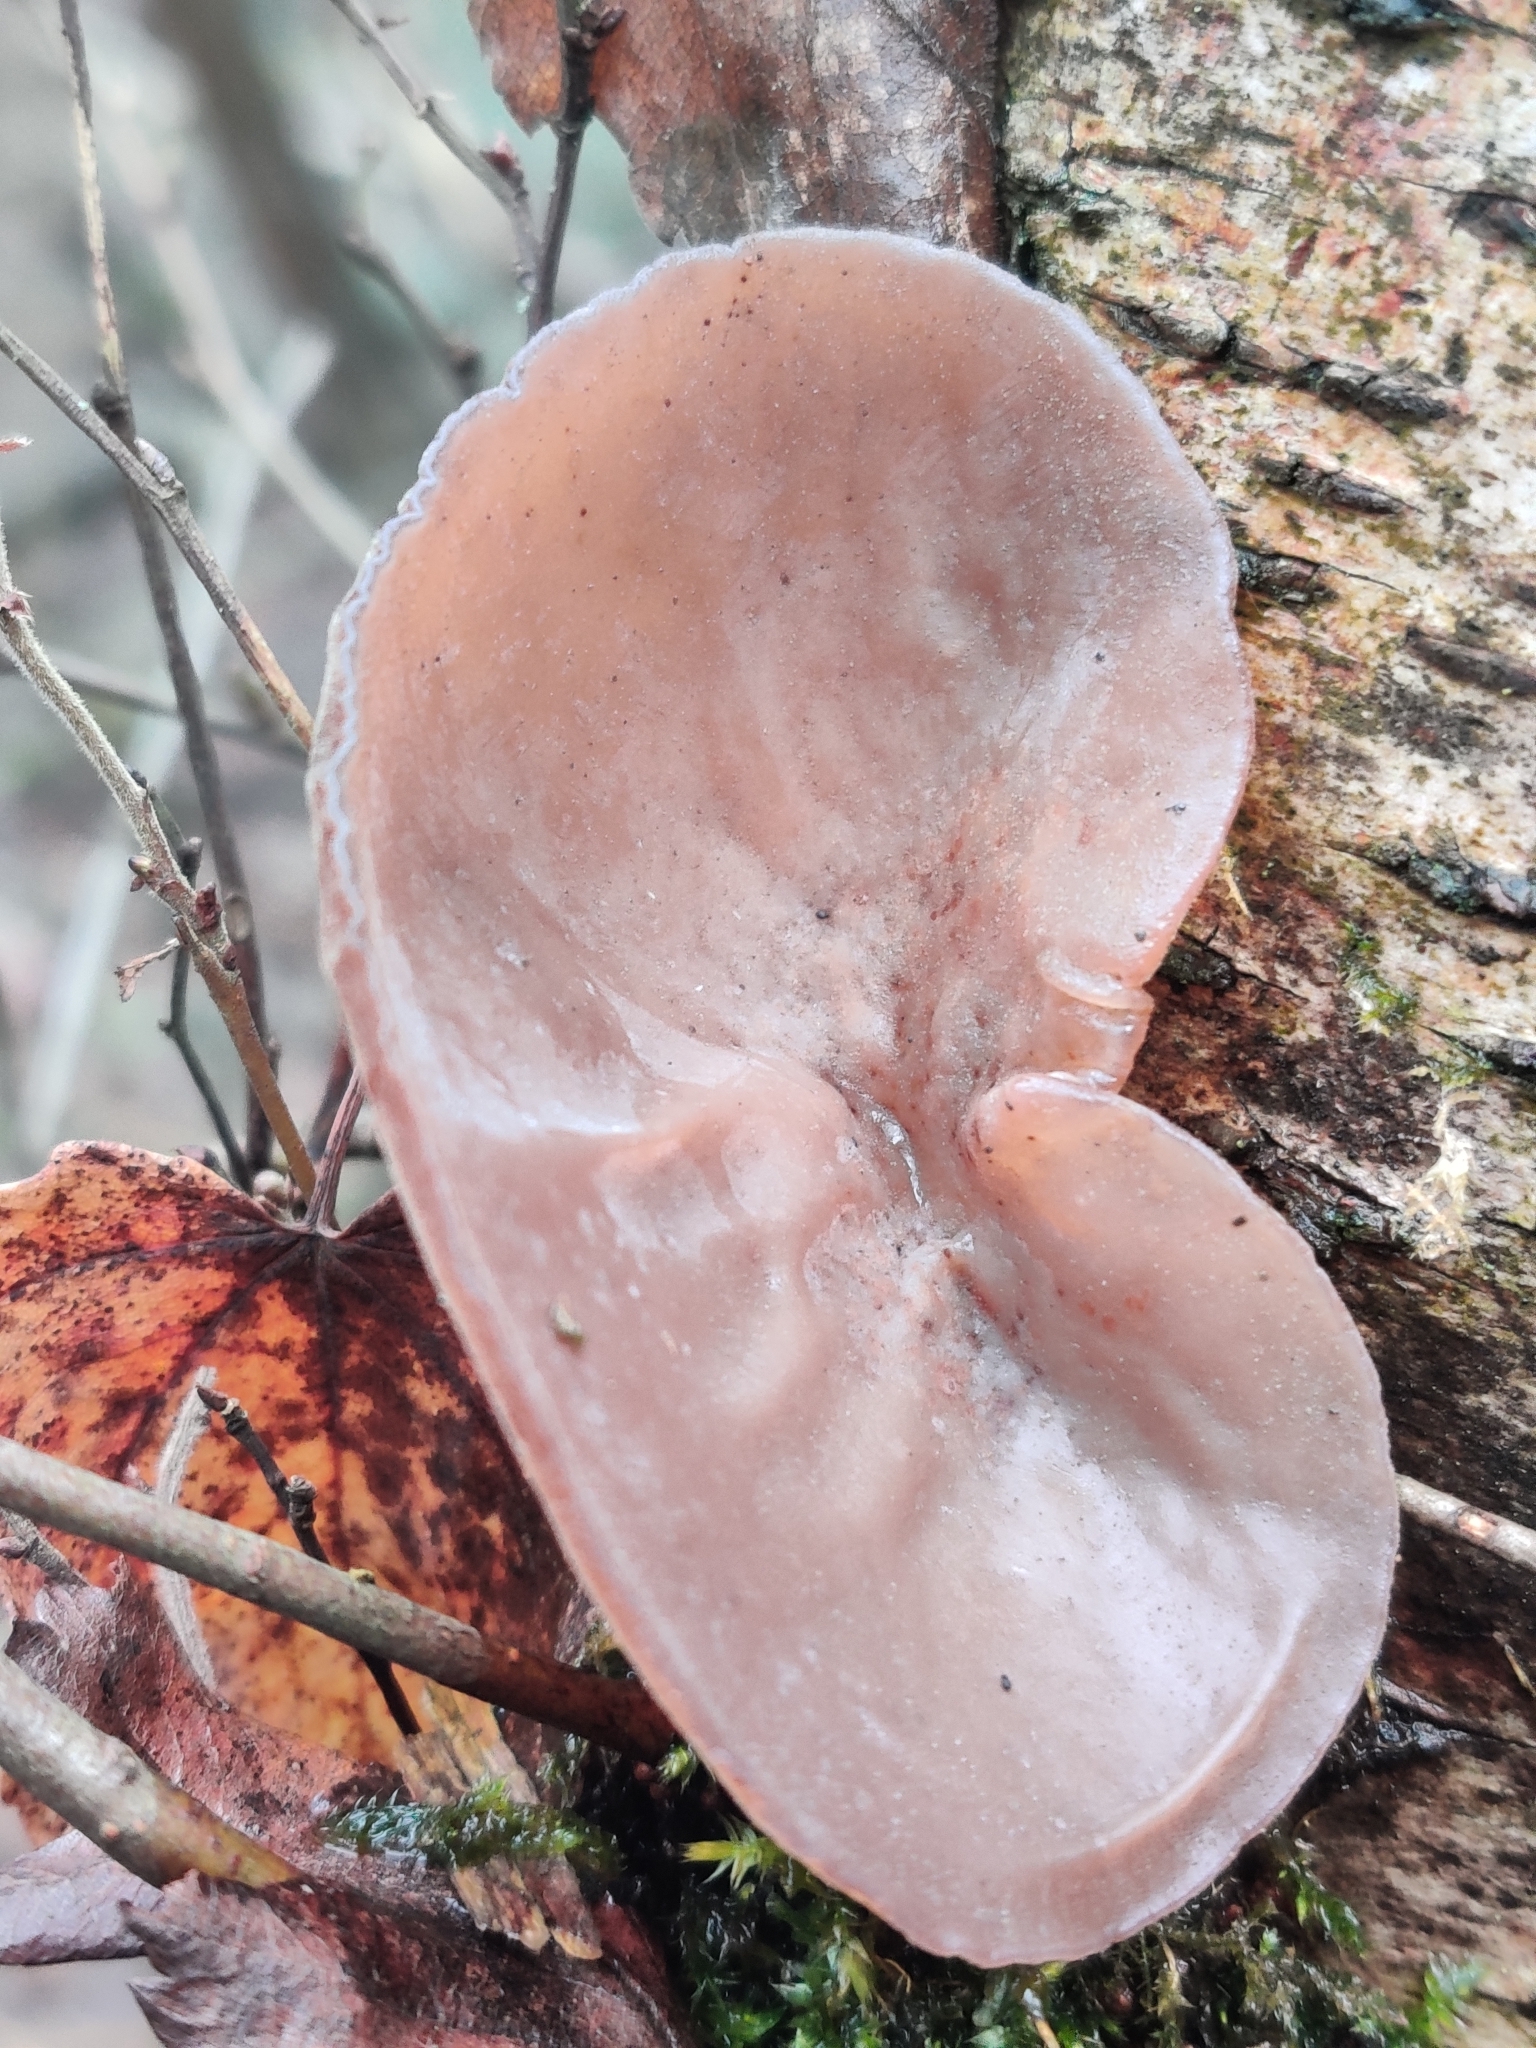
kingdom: Fungi
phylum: Basidiomycota
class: Agaricomycetes
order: Auriculariales
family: Auriculariaceae
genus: Auricularia
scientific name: Auricularia auricula-judae
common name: Jelly ear
